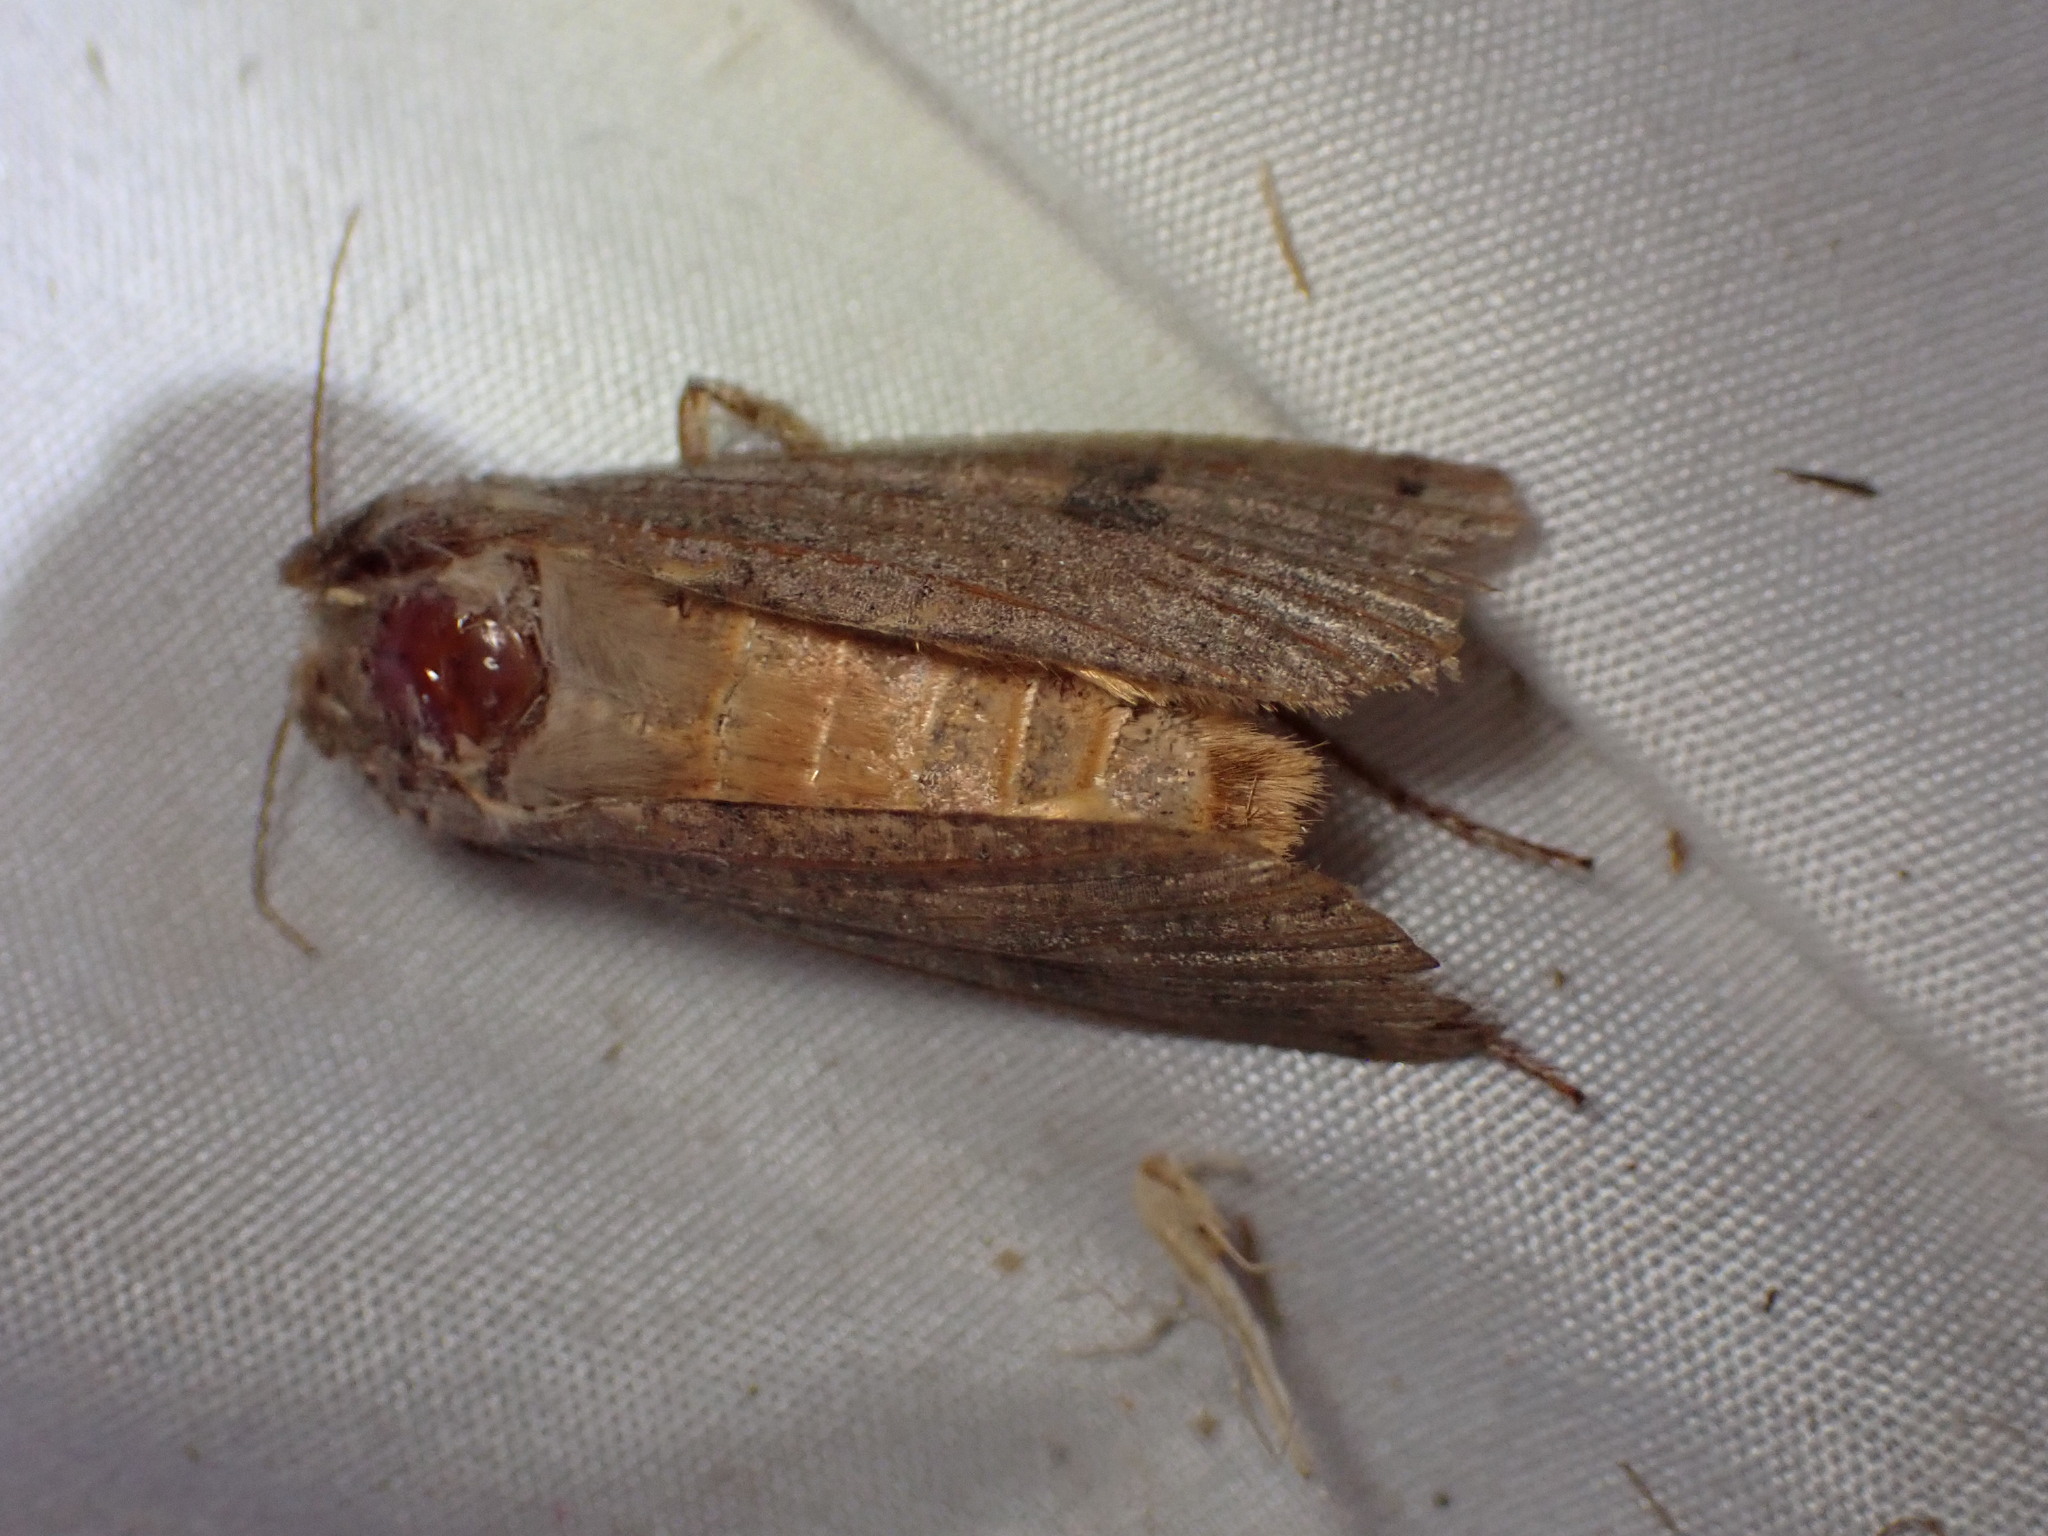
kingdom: Animalia
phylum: Arthropoda
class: Insecta
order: Lepidoptera
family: Noctuidae
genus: Noctua
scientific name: Noctua pronuba
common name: Large yellow underwing
